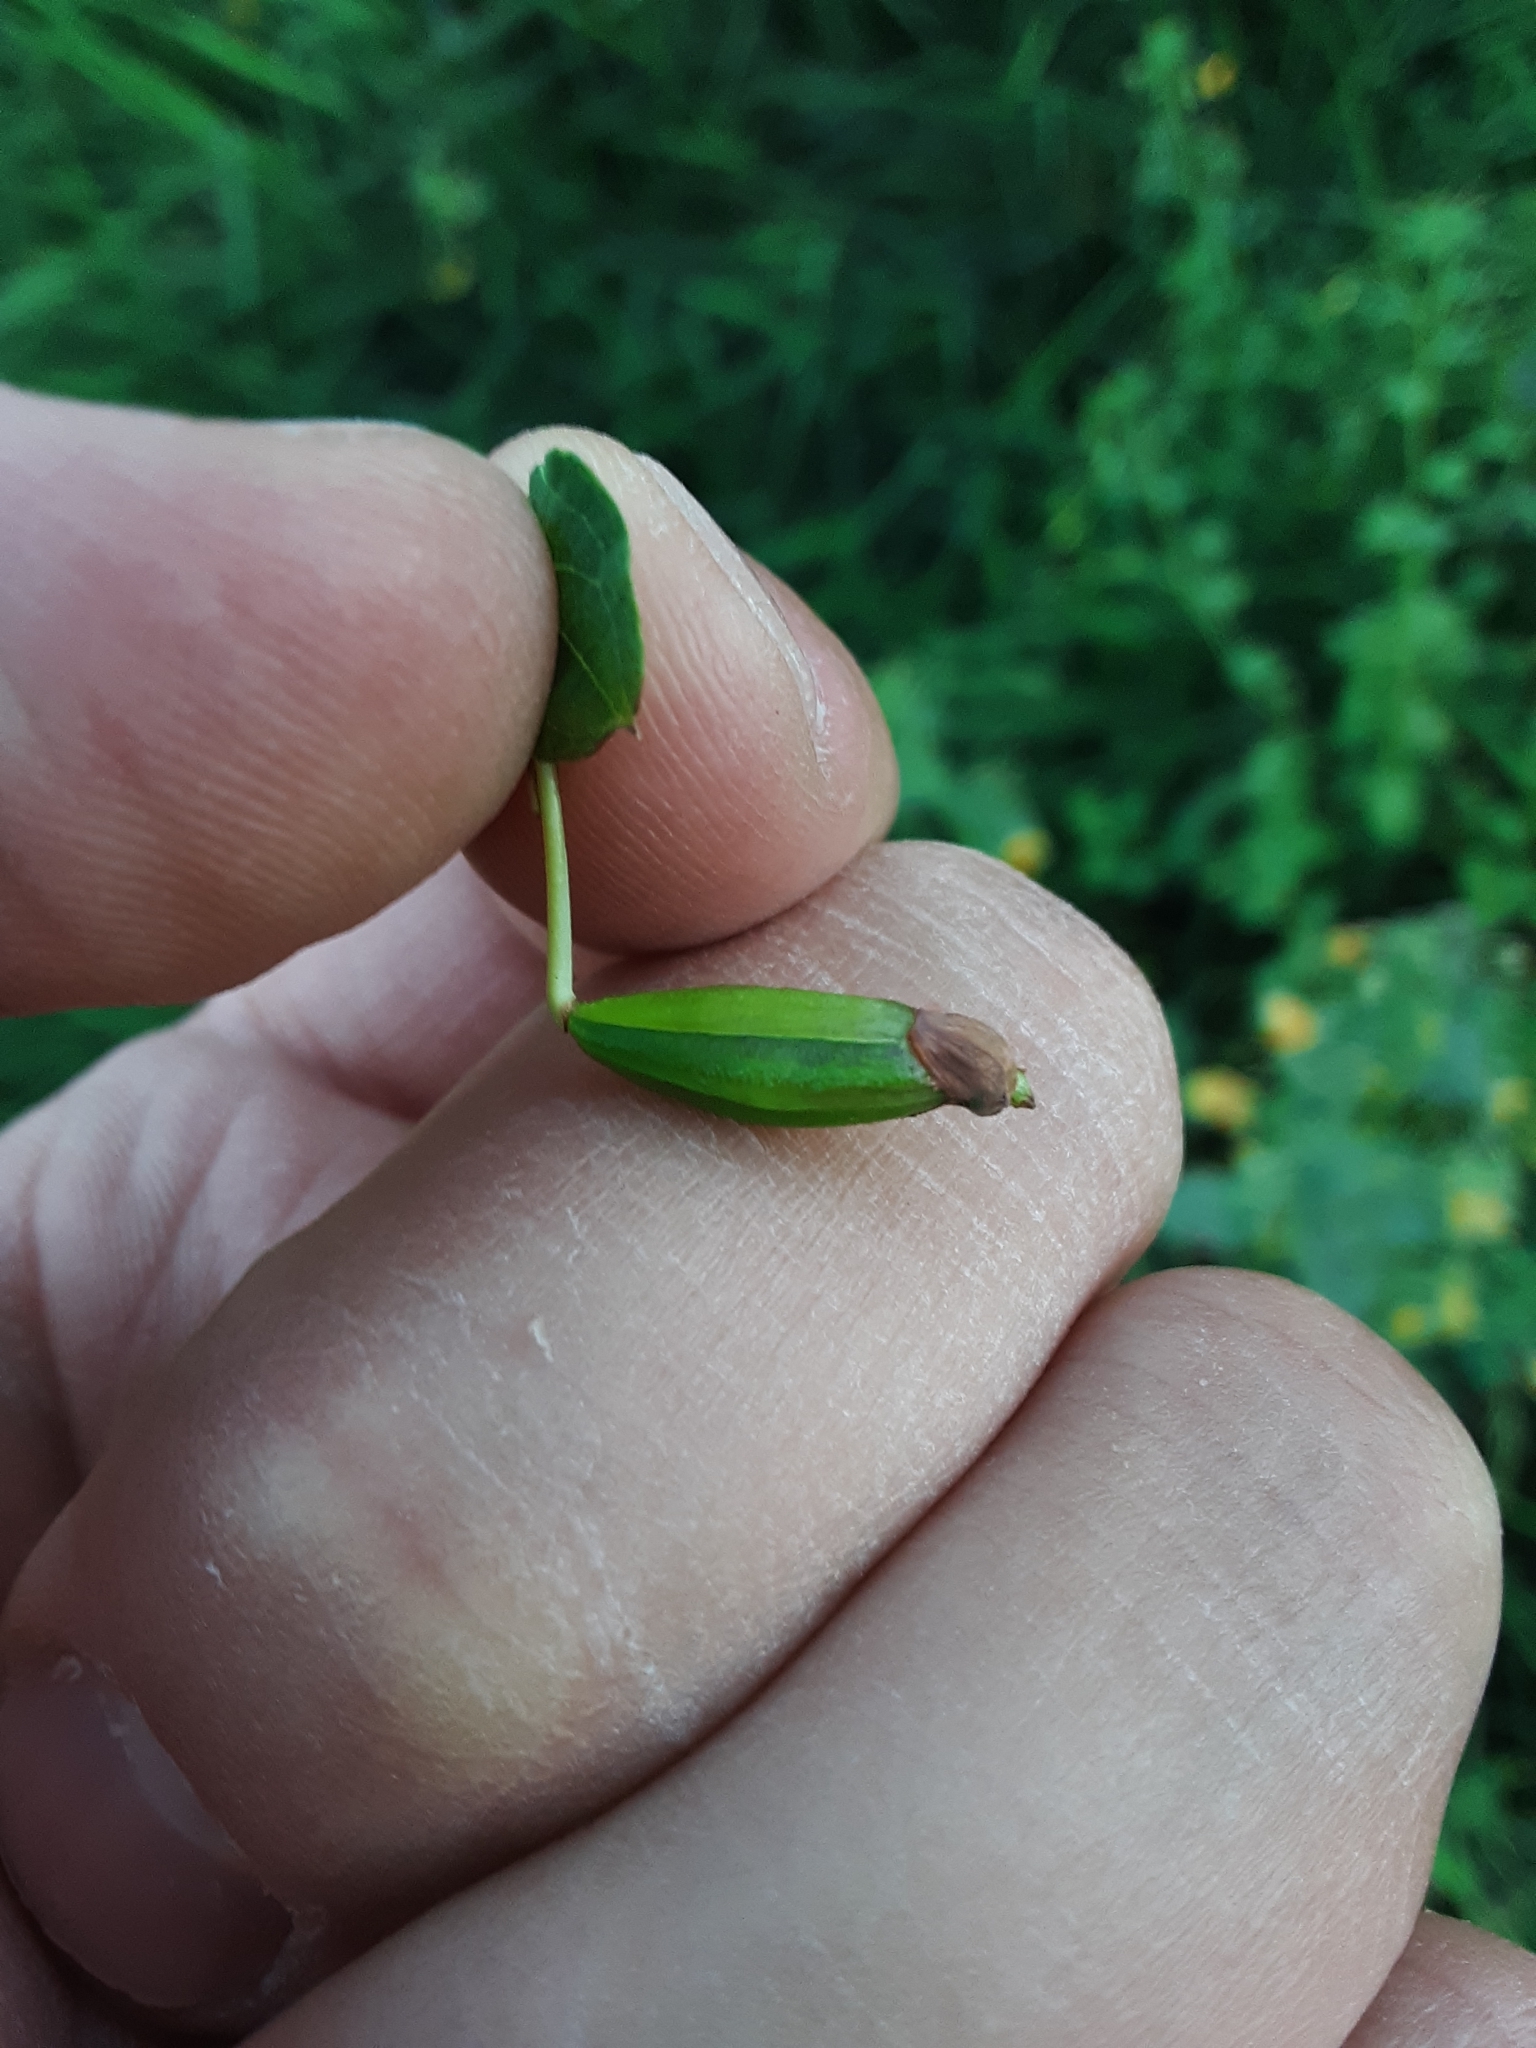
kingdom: Plantae
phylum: Tracheophyta
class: Magnoliopsida
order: Ericales
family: Balsaminaceae
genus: Impatiens
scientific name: Impatiens ecornuta
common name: Spurless jewelweed
